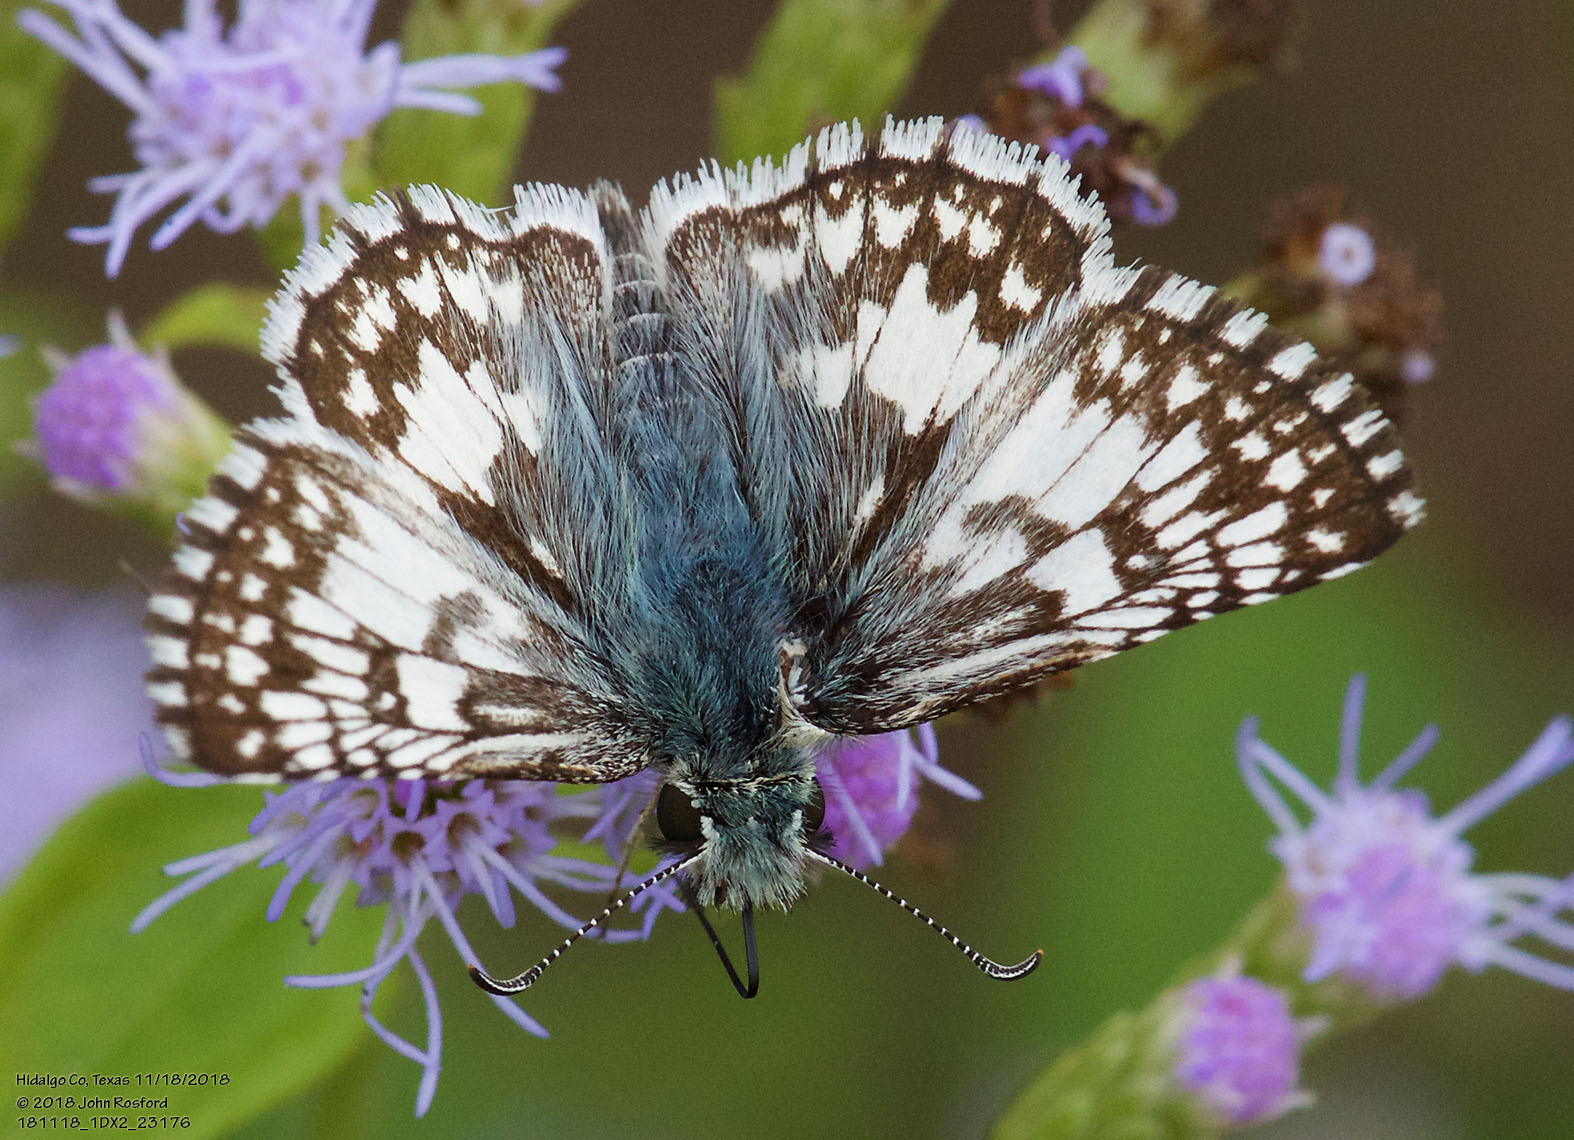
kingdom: Animalia
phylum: Arthropoda
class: Insecta
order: Lepidoptera
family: Hesperiidae
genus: Burnsius
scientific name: Burnsius albezens
